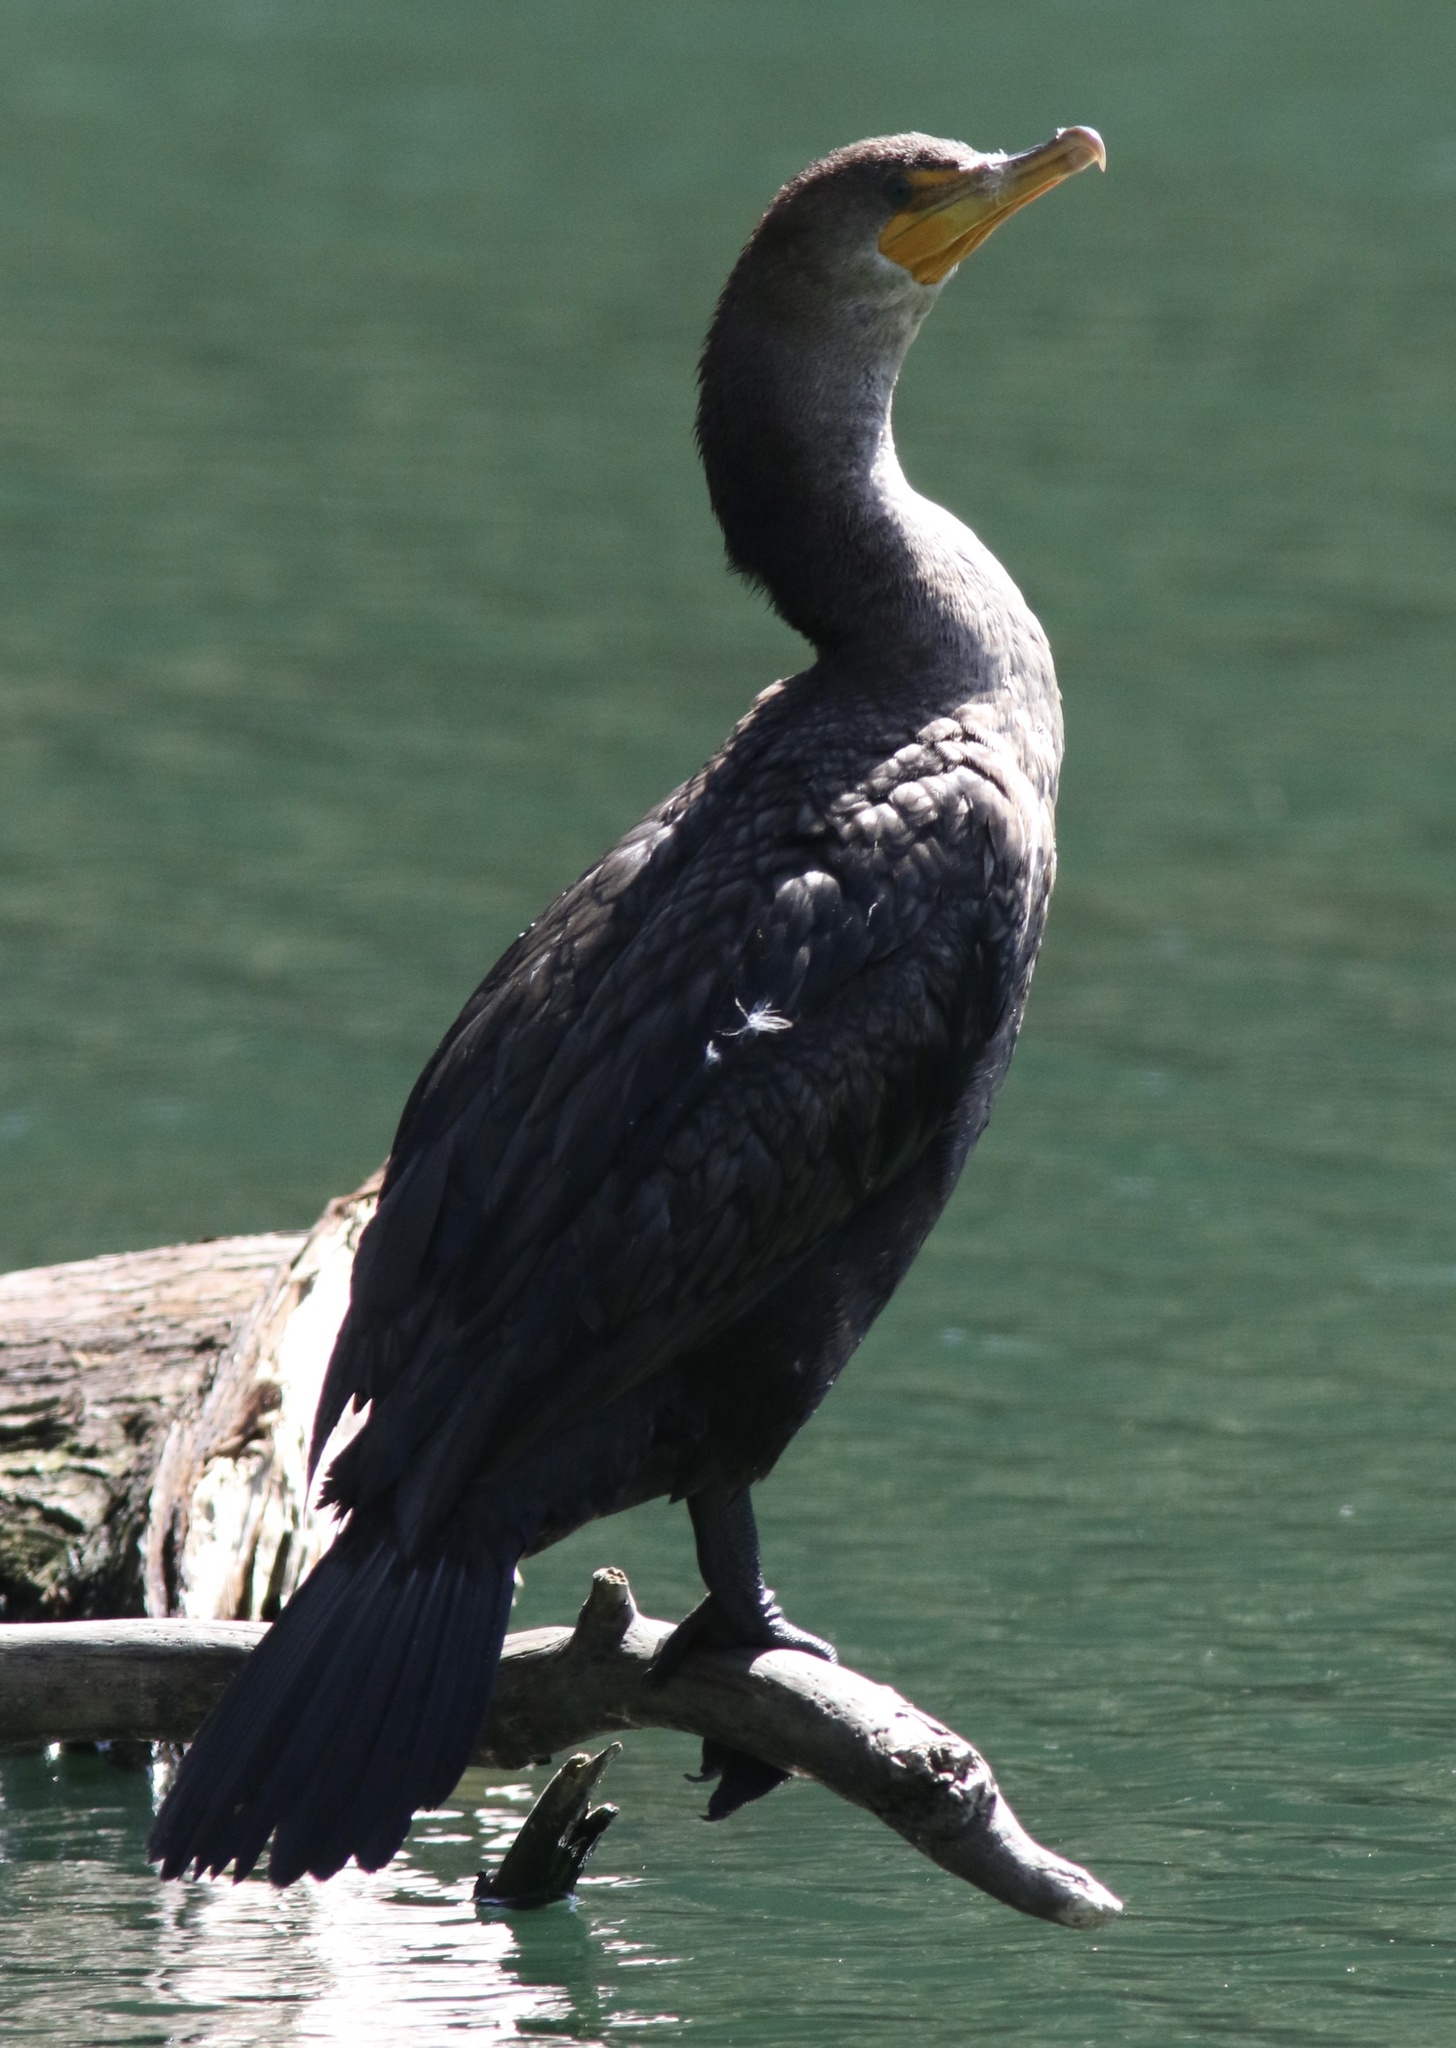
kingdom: Animalia
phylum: Chordata
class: Aves
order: Suliformes
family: Phalacrocoracidae
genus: Phalacrocorax
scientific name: Phalacrocorax auritus
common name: Double-crested cormorant
